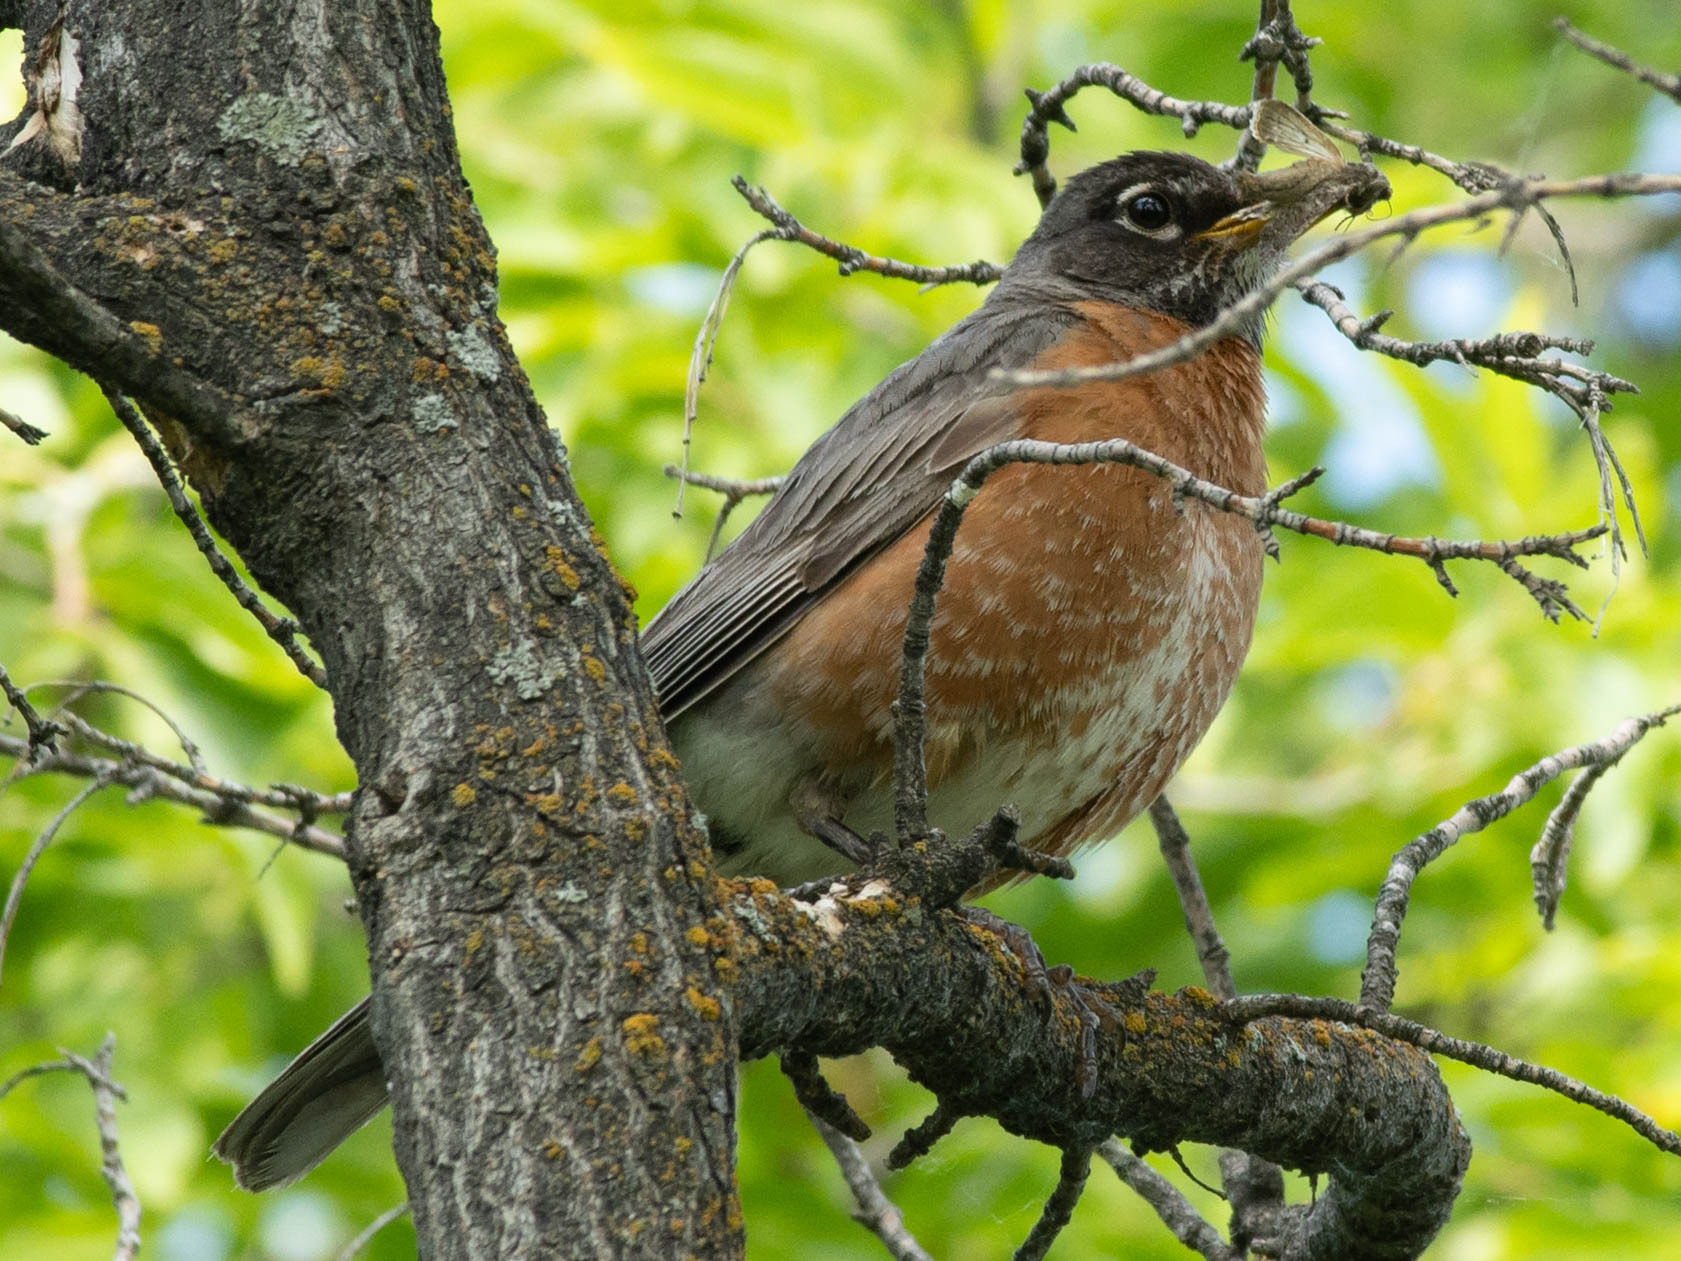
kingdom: Animalia
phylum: Chordata
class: Aves
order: Passeriformes
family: Turdidae
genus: Turdus
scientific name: Turdus migratorius
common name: American robin
